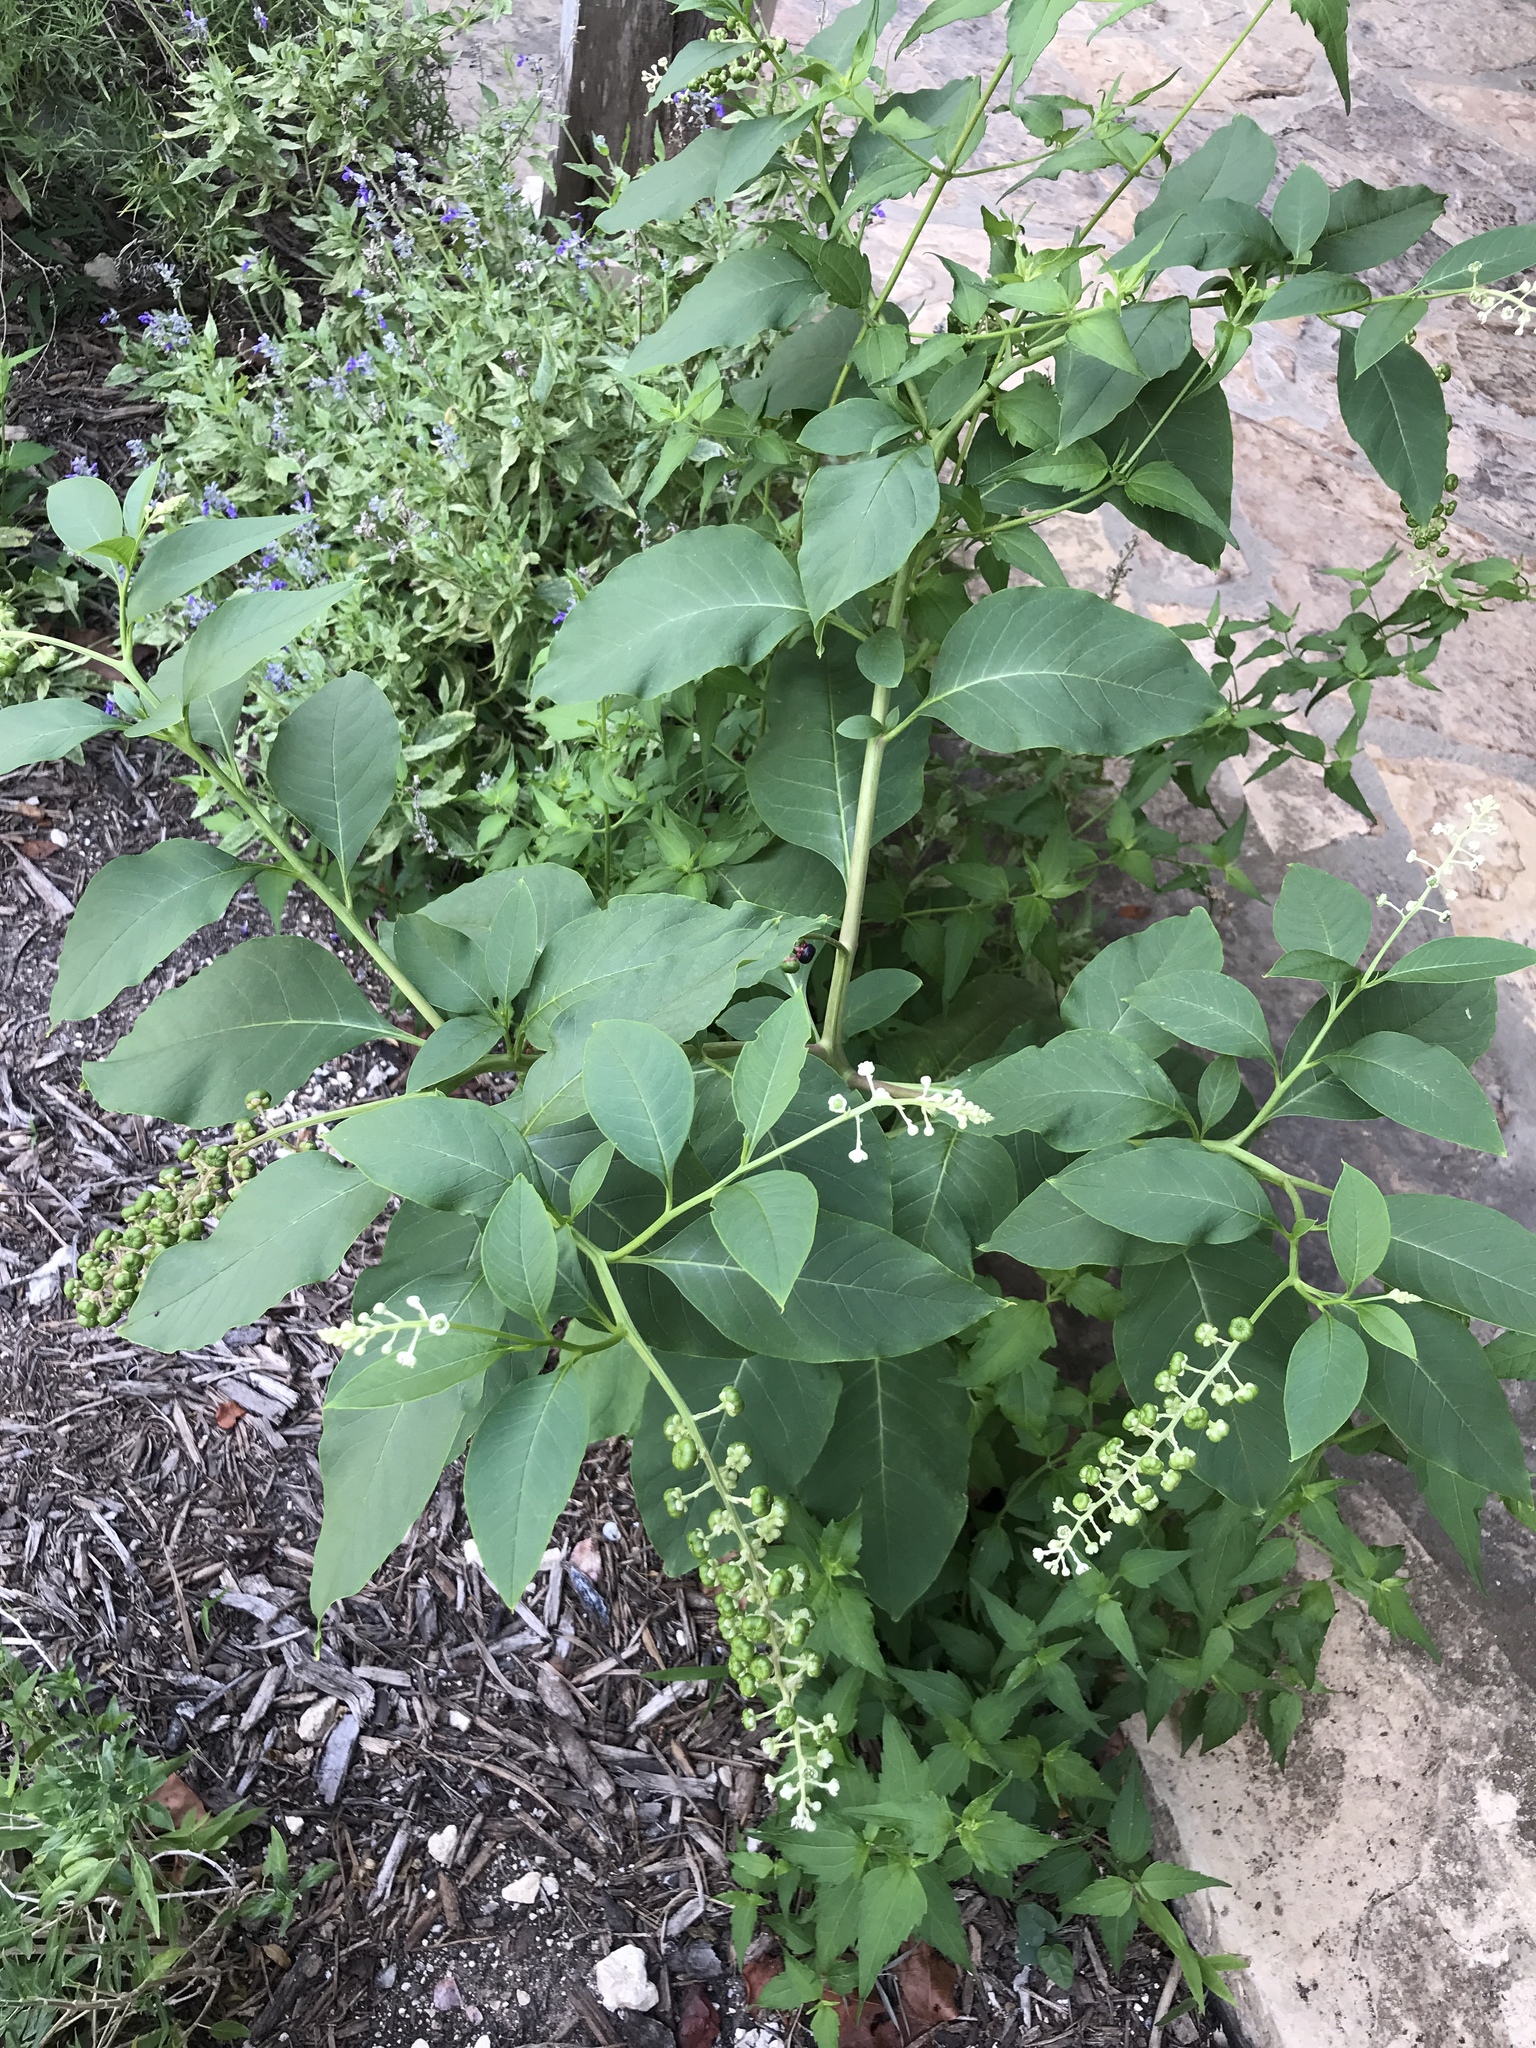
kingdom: Plantae
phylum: Tracheophyta
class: Magnoliopsida
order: Caryophyllales
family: Phytolaccaceae
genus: Phytolacca
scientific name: Phytolacca americana
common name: American pokeweed
